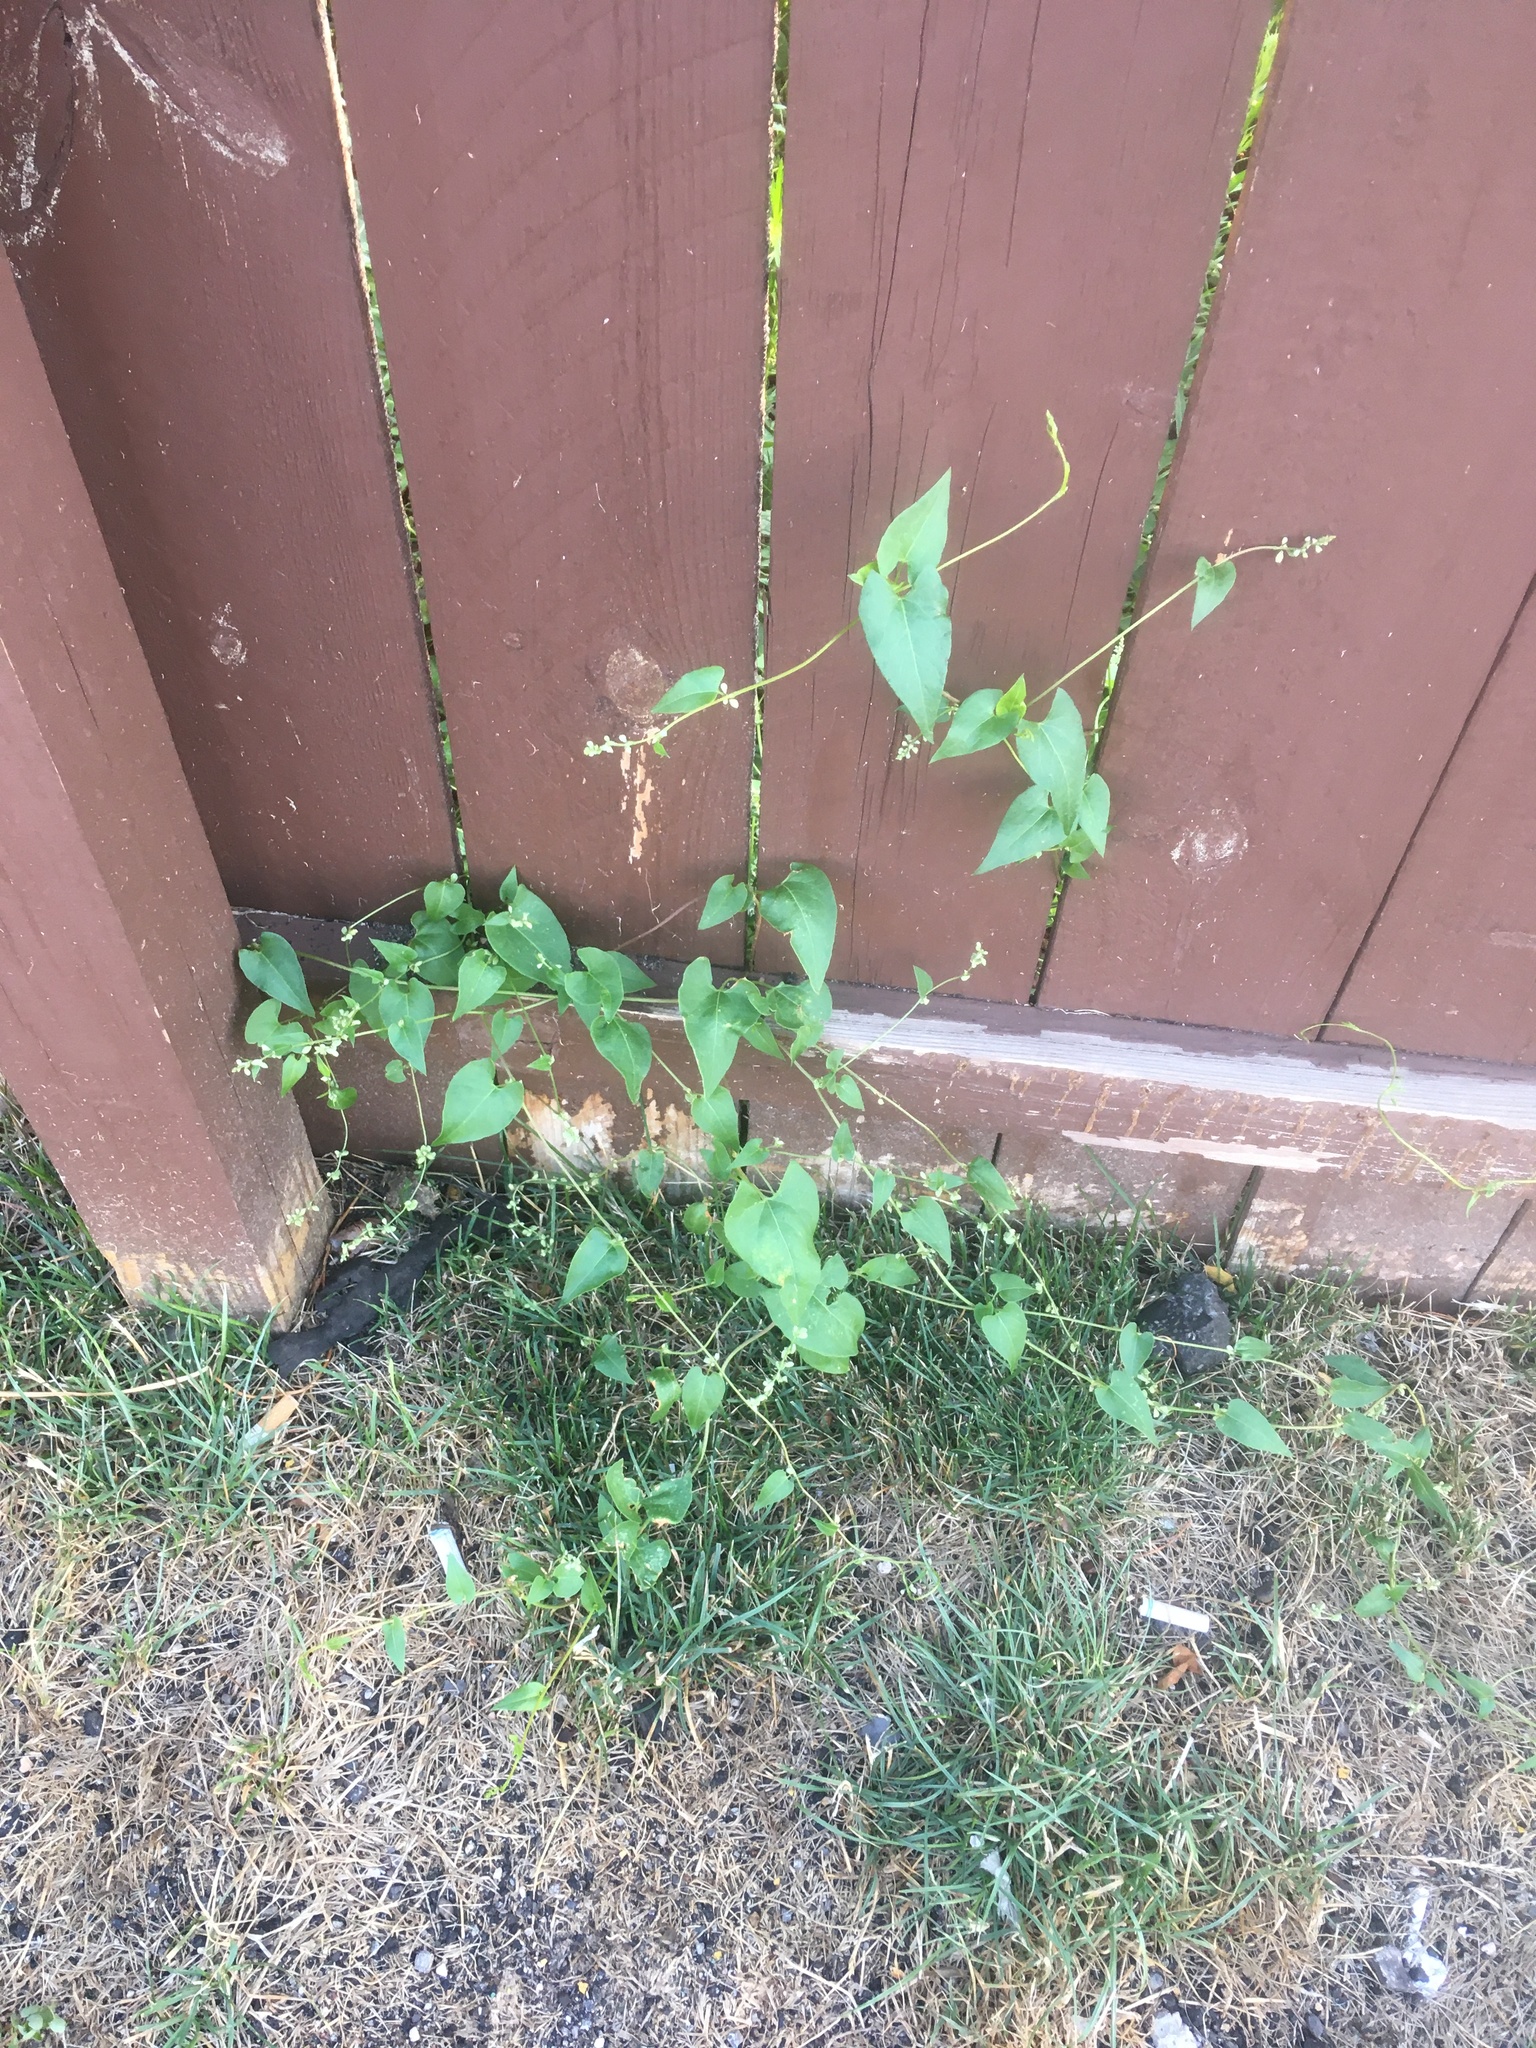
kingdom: Plantae
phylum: Tracheophyta
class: Magnoliopsida
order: Caryophyllales
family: Polygonaceae
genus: Fallopia
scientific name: Fallopia convolvulus
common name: Black bindweed
